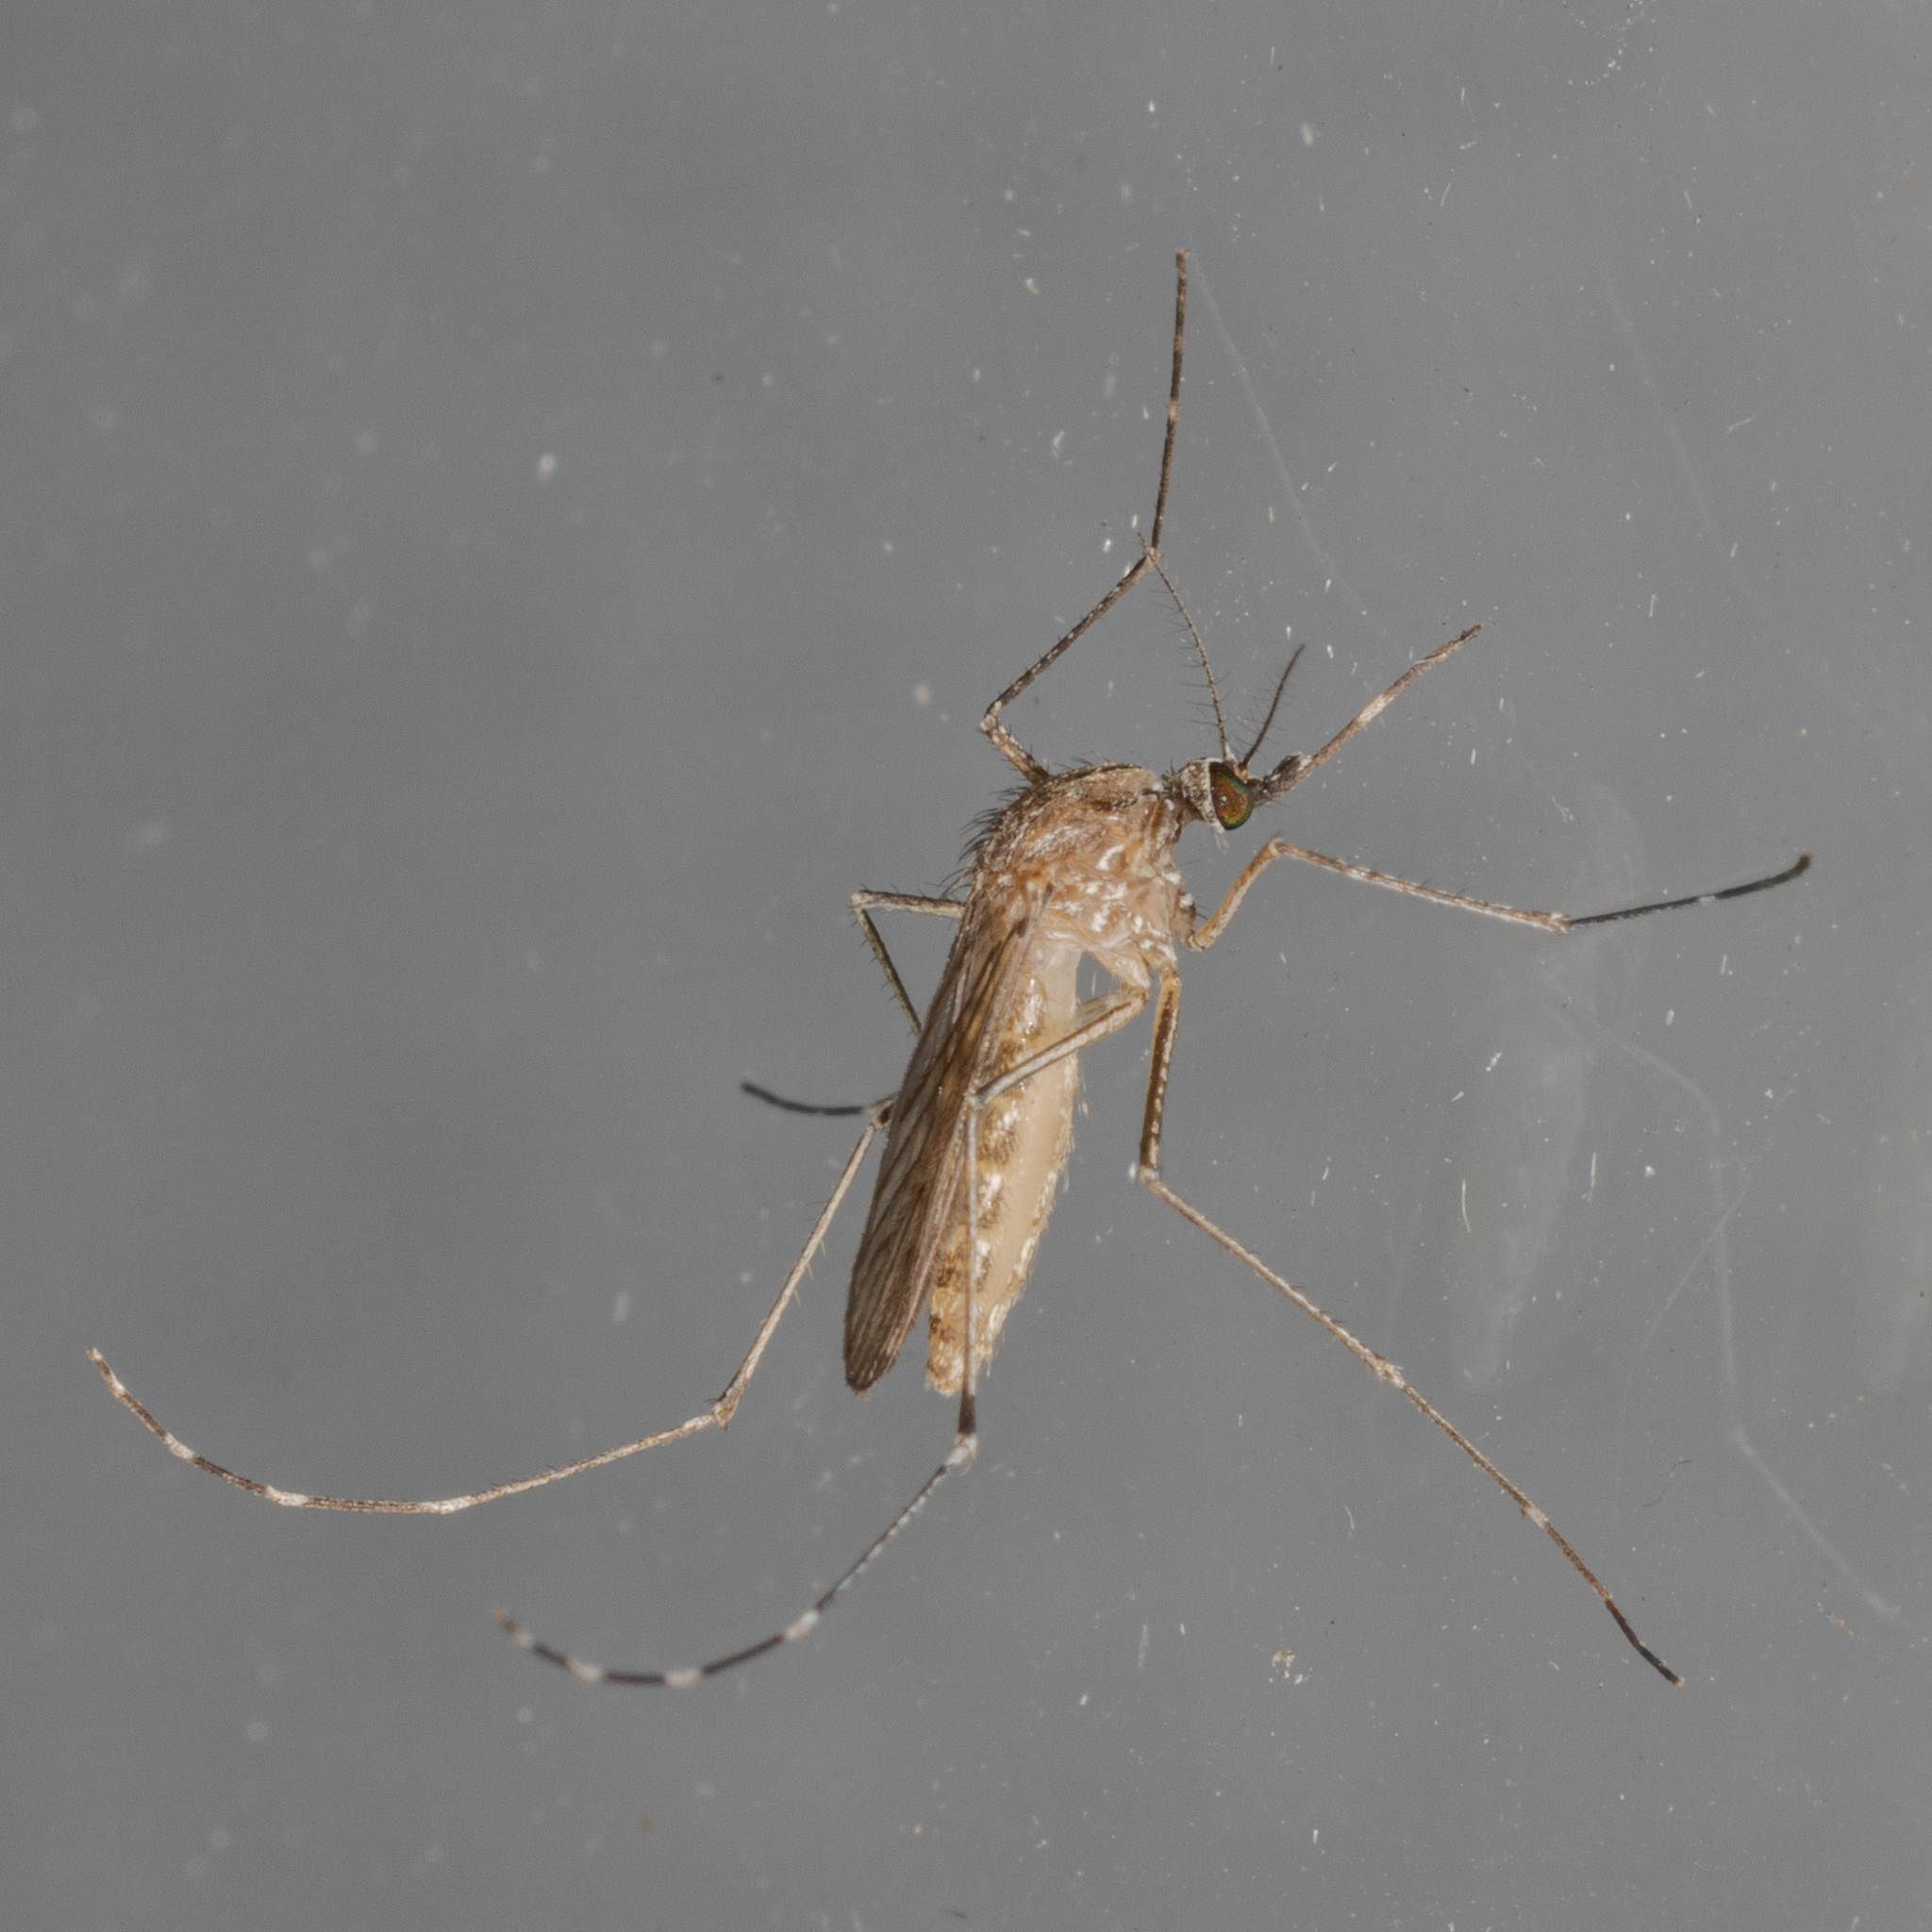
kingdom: Animalia
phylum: Arthropoda
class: Insecta
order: Diptera
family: Culicidae
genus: Culex
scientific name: Culex tarsalis
